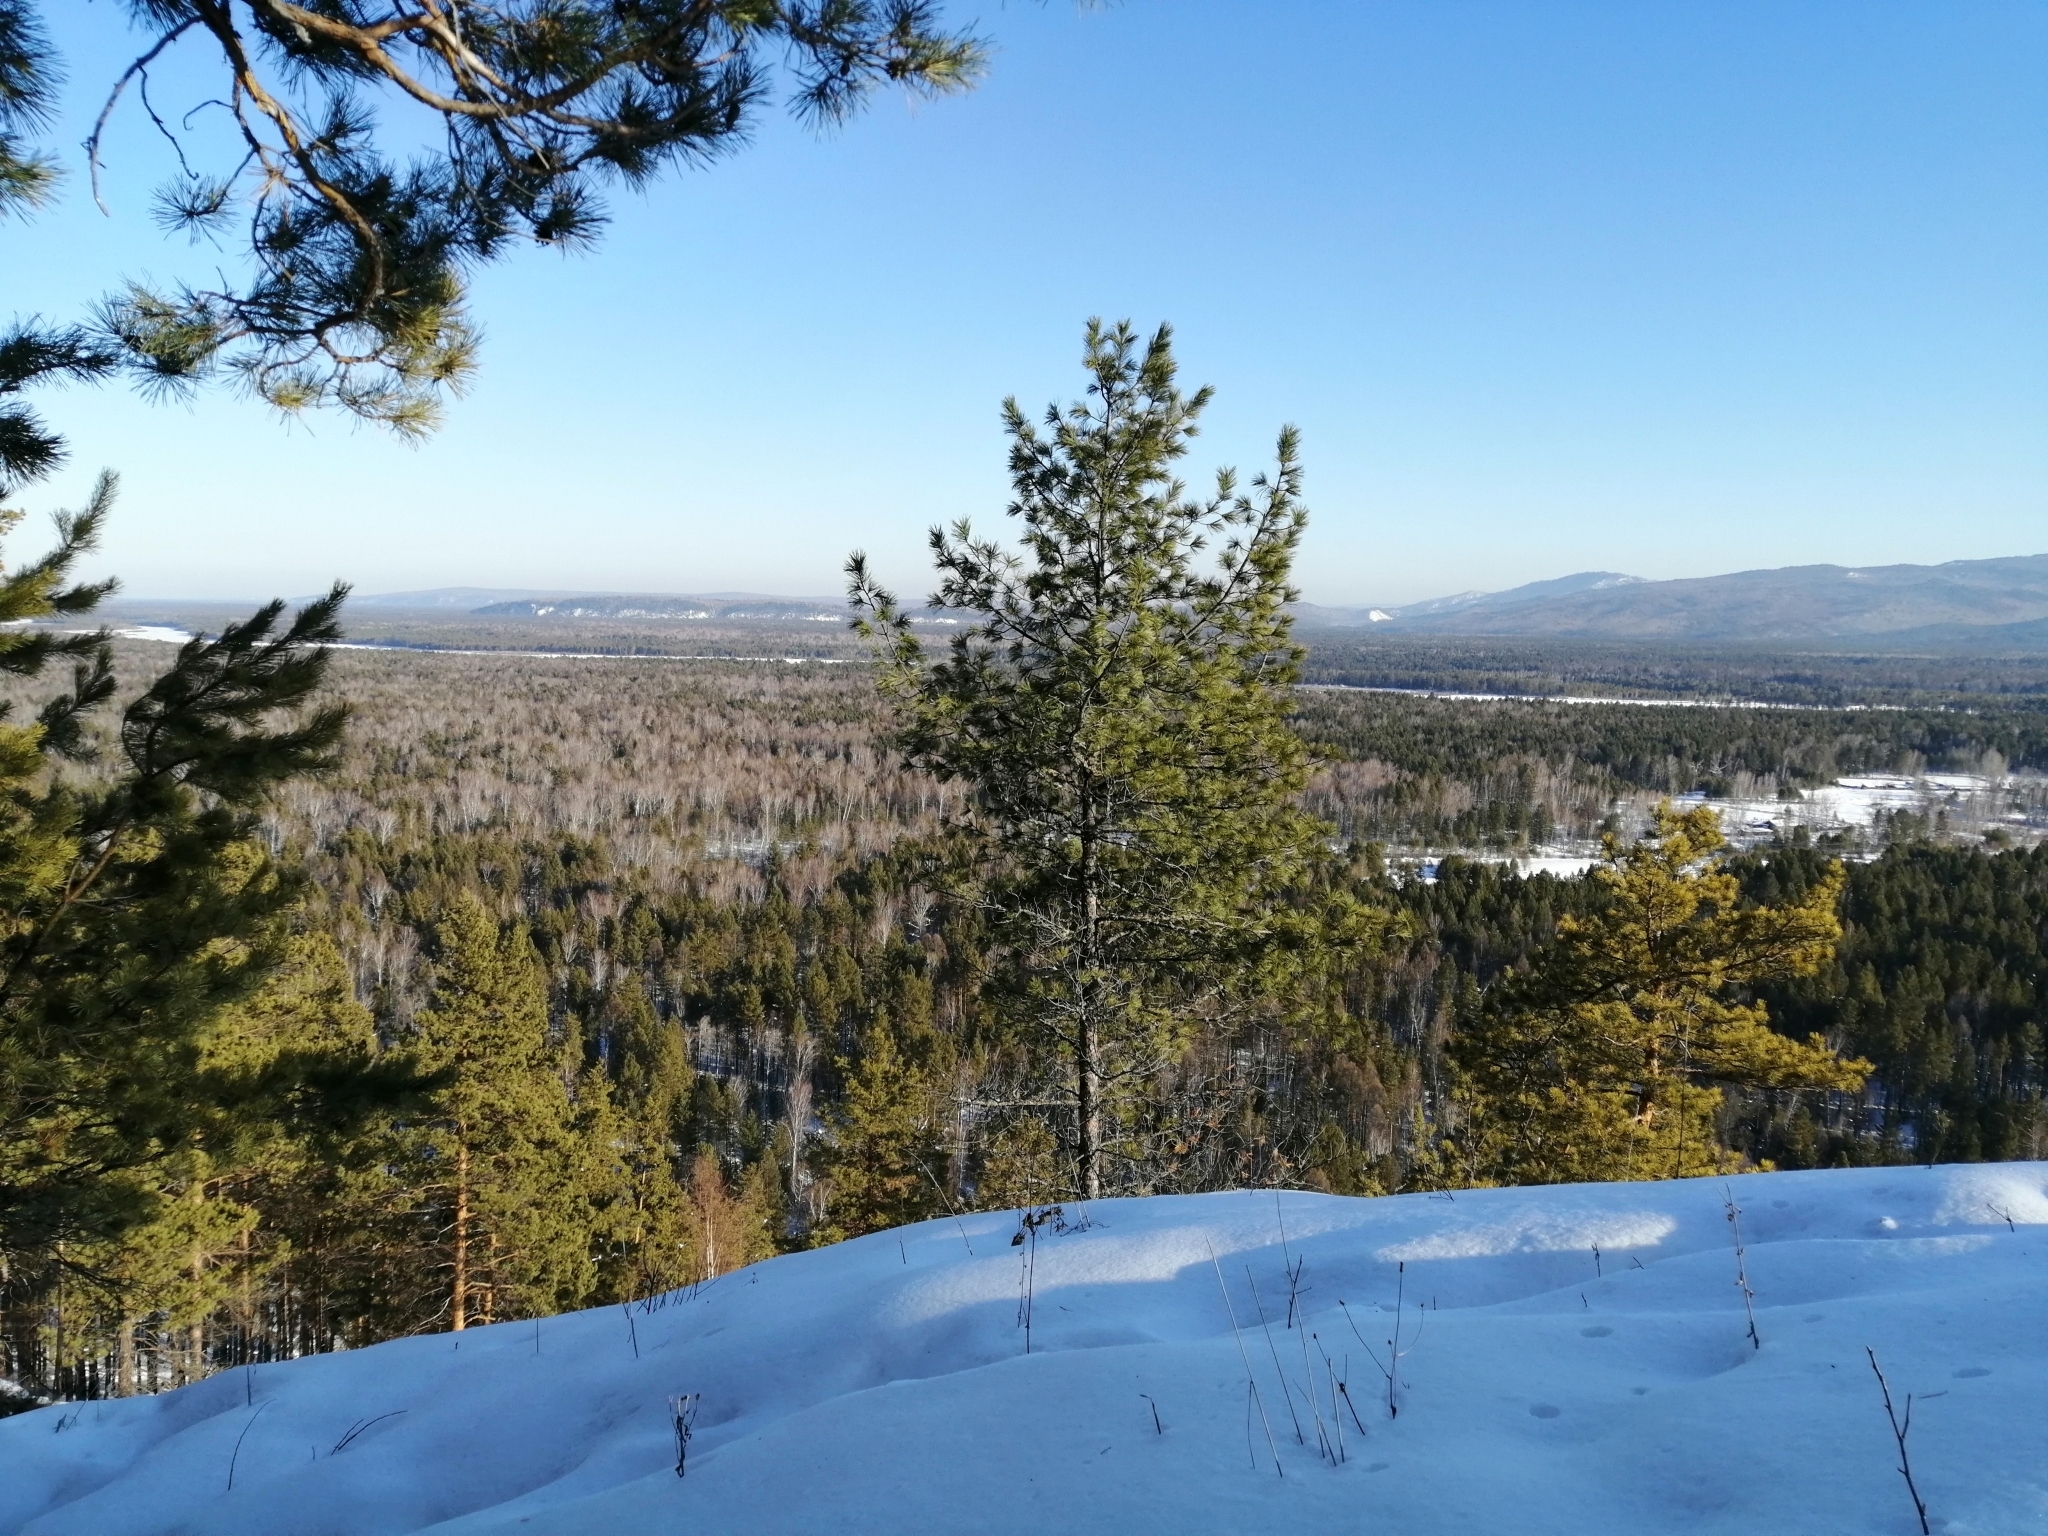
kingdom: Plantae
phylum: Tracheophyta
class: Pinopsida
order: Pinales
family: Pinaceae
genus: Pinus
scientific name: Pinus sibirica
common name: Siberian pine
